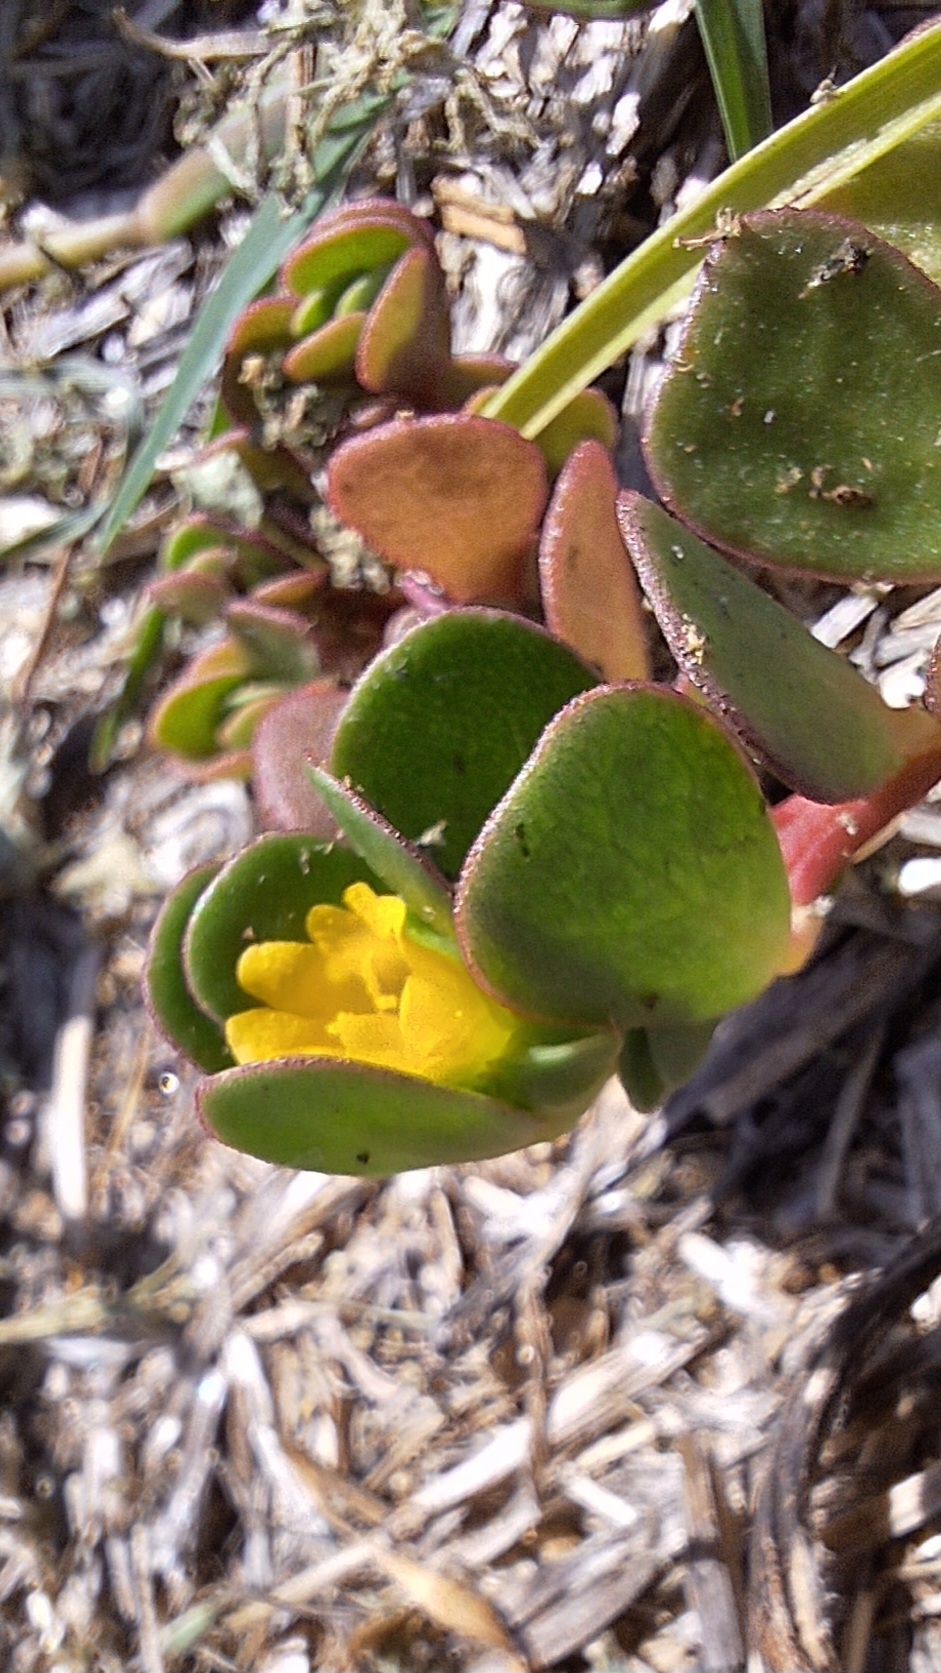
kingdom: Plantae
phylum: Tracheophyta
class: Magnoliopsida
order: Caryophyllales
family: Portulacaceae
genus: Portulaca
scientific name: Portulaca oleracea
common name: Common purslane
